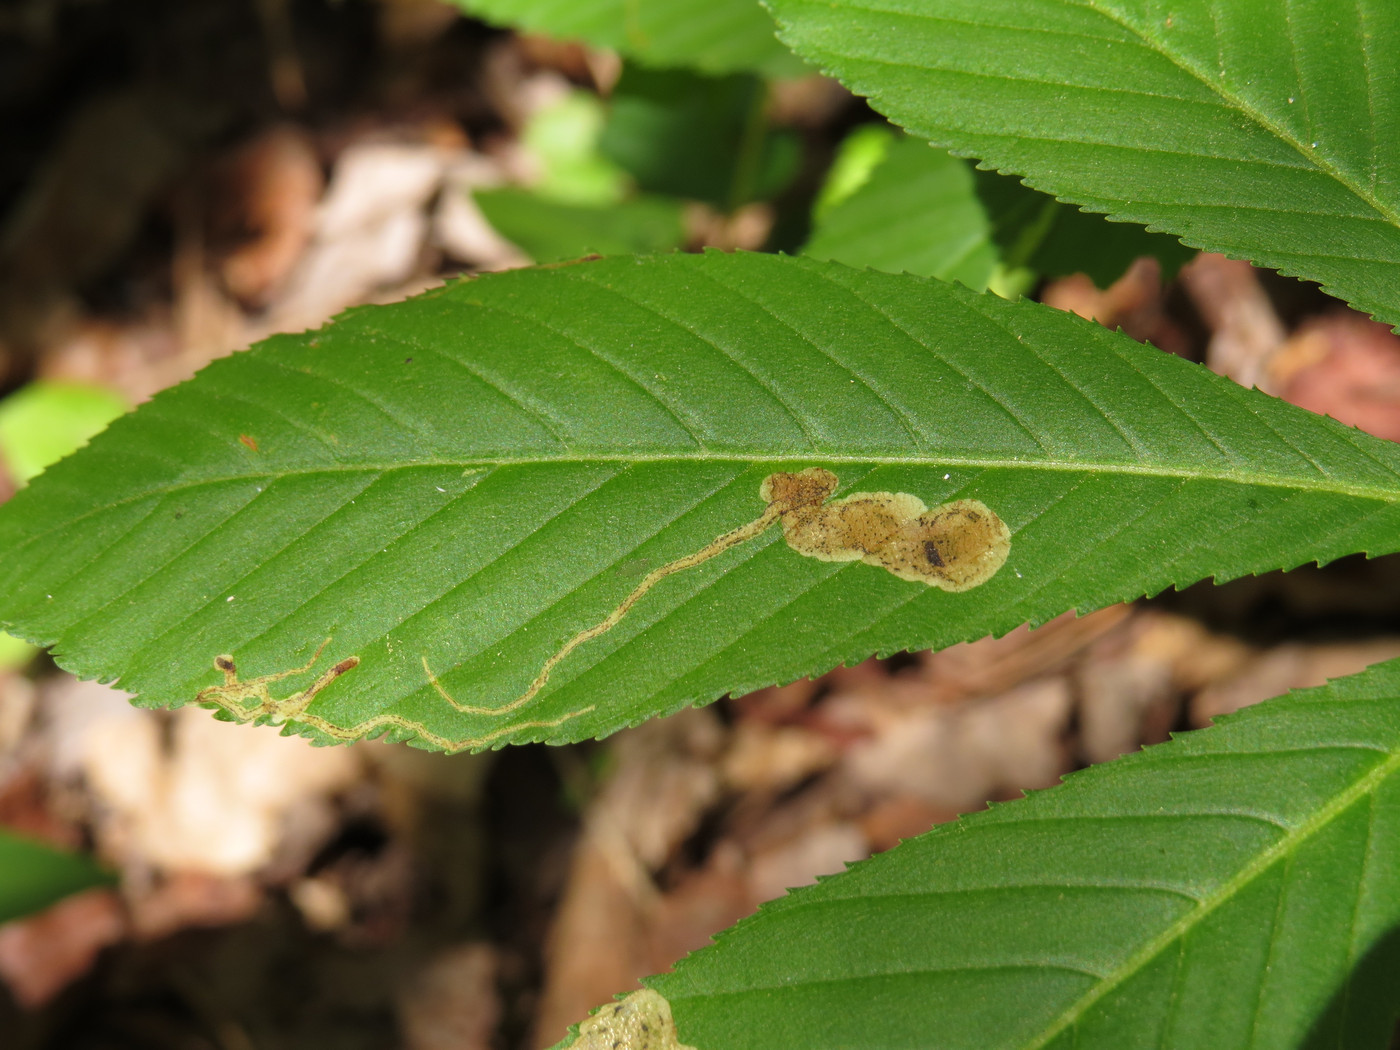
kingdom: Animalia
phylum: Arthropoda
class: Insecta
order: Diptera
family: Agromyzidae
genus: Phytomyza
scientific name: Phytomyza aesculi
